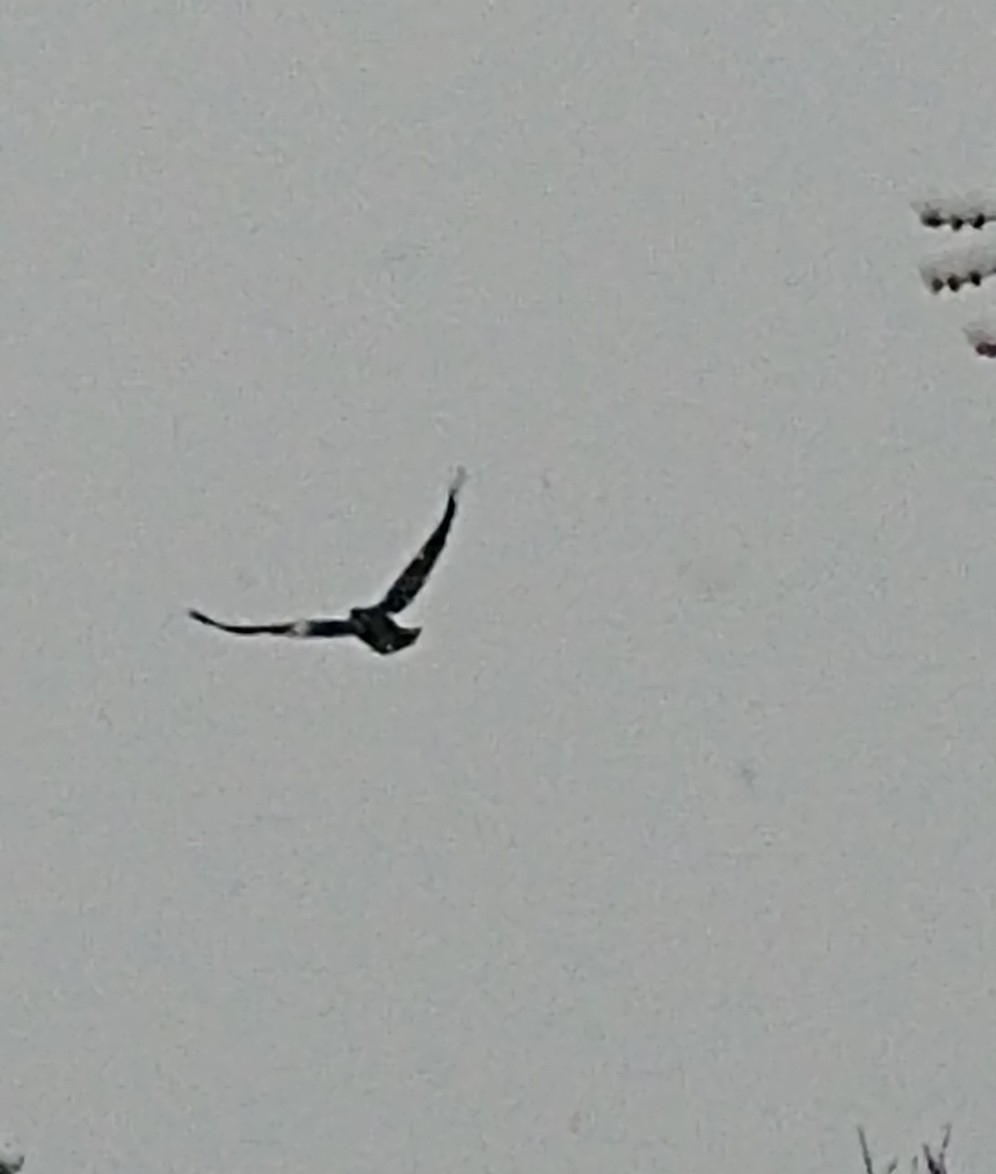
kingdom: Animalia
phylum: Chordata
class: Aves
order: Passeriformes
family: Corvidae
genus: Corvus
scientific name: Corvus brachyrhynchos
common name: American crow
